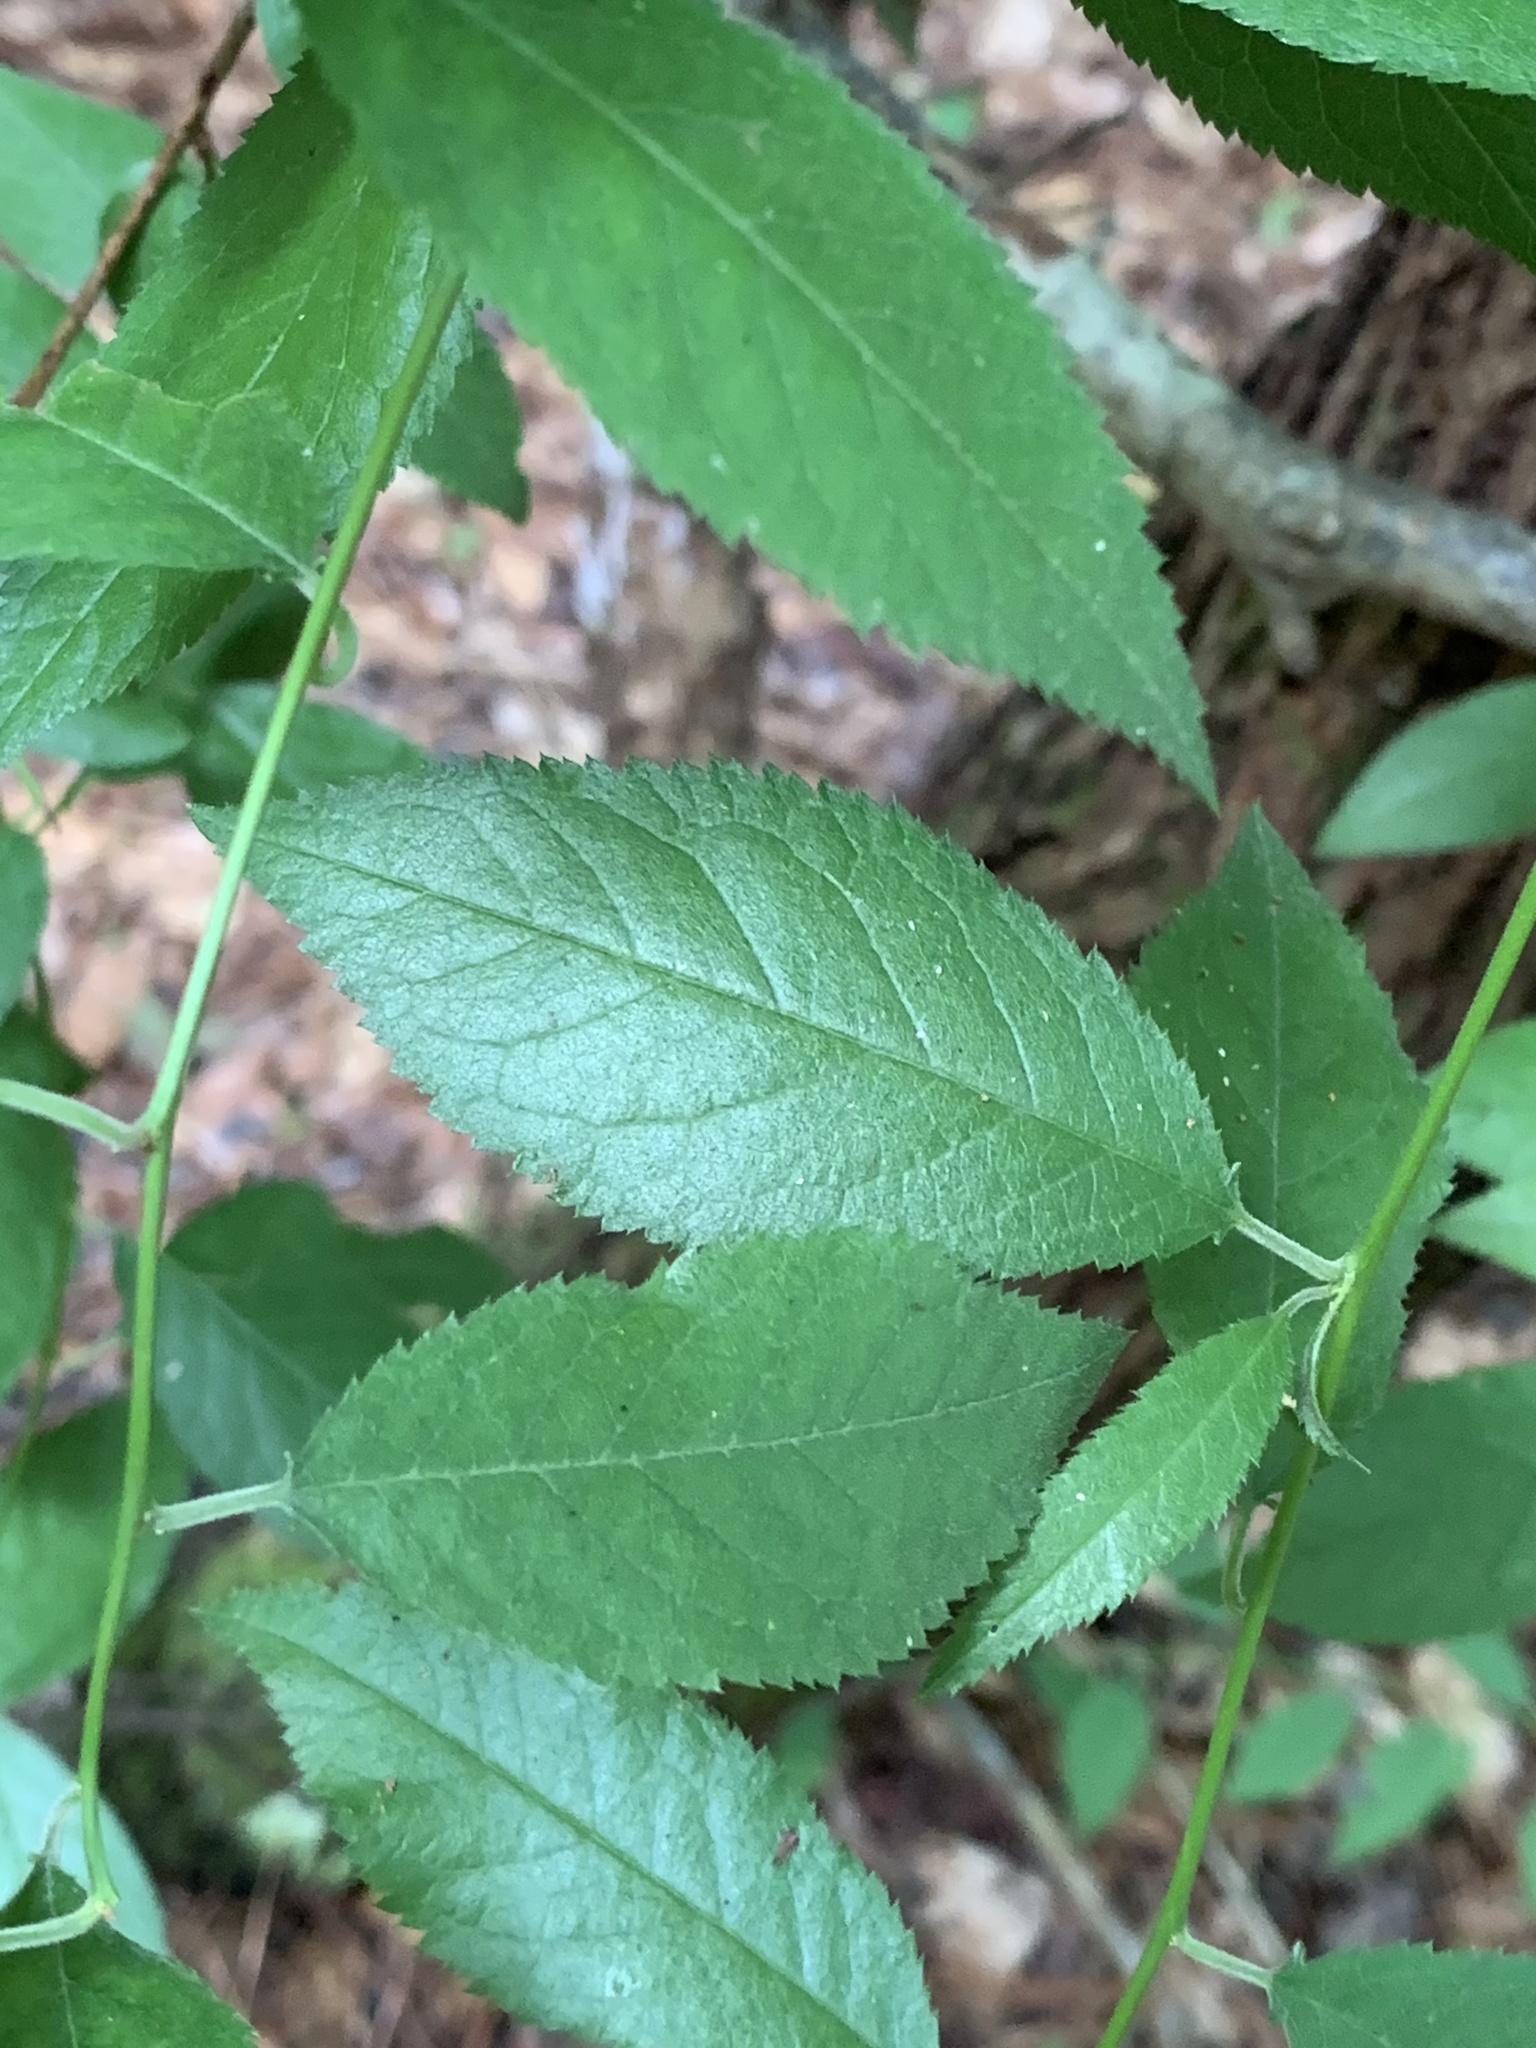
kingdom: Plantae
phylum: Tracheophyta
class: Magnoliopsida
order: Rosales
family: Ulmaceae
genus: Ulmus
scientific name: Ulmus alata
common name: Winged elm
